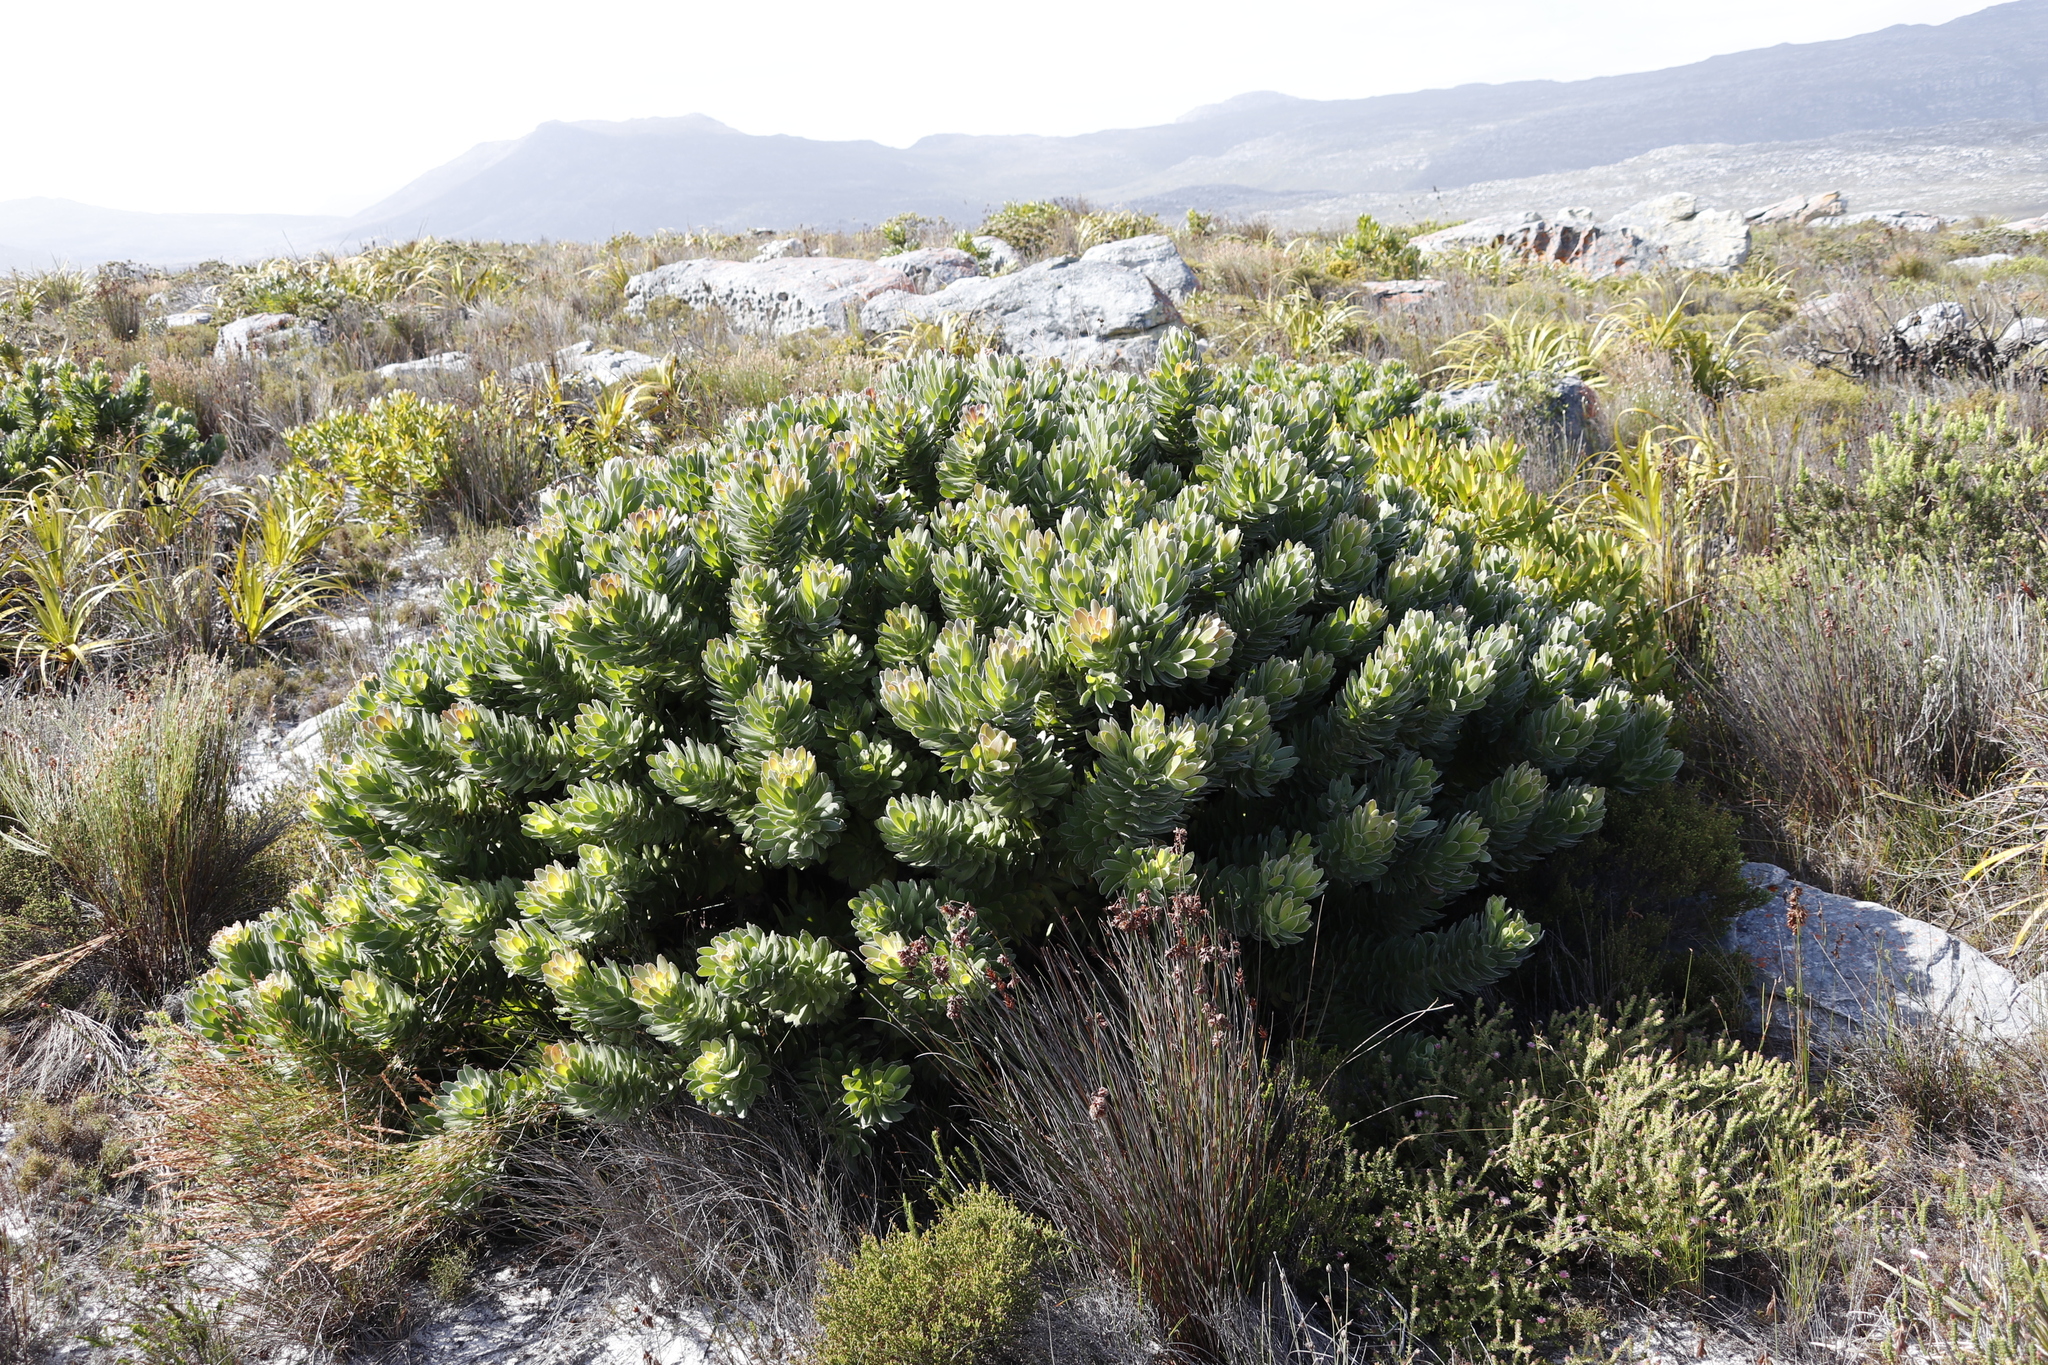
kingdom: Plantae
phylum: Tracheophyta
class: Magnoliopsida
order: Proteales
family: Proteaceae
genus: Mimetes
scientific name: Mimetes fimbriifolius
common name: Fringed bottlebrush
